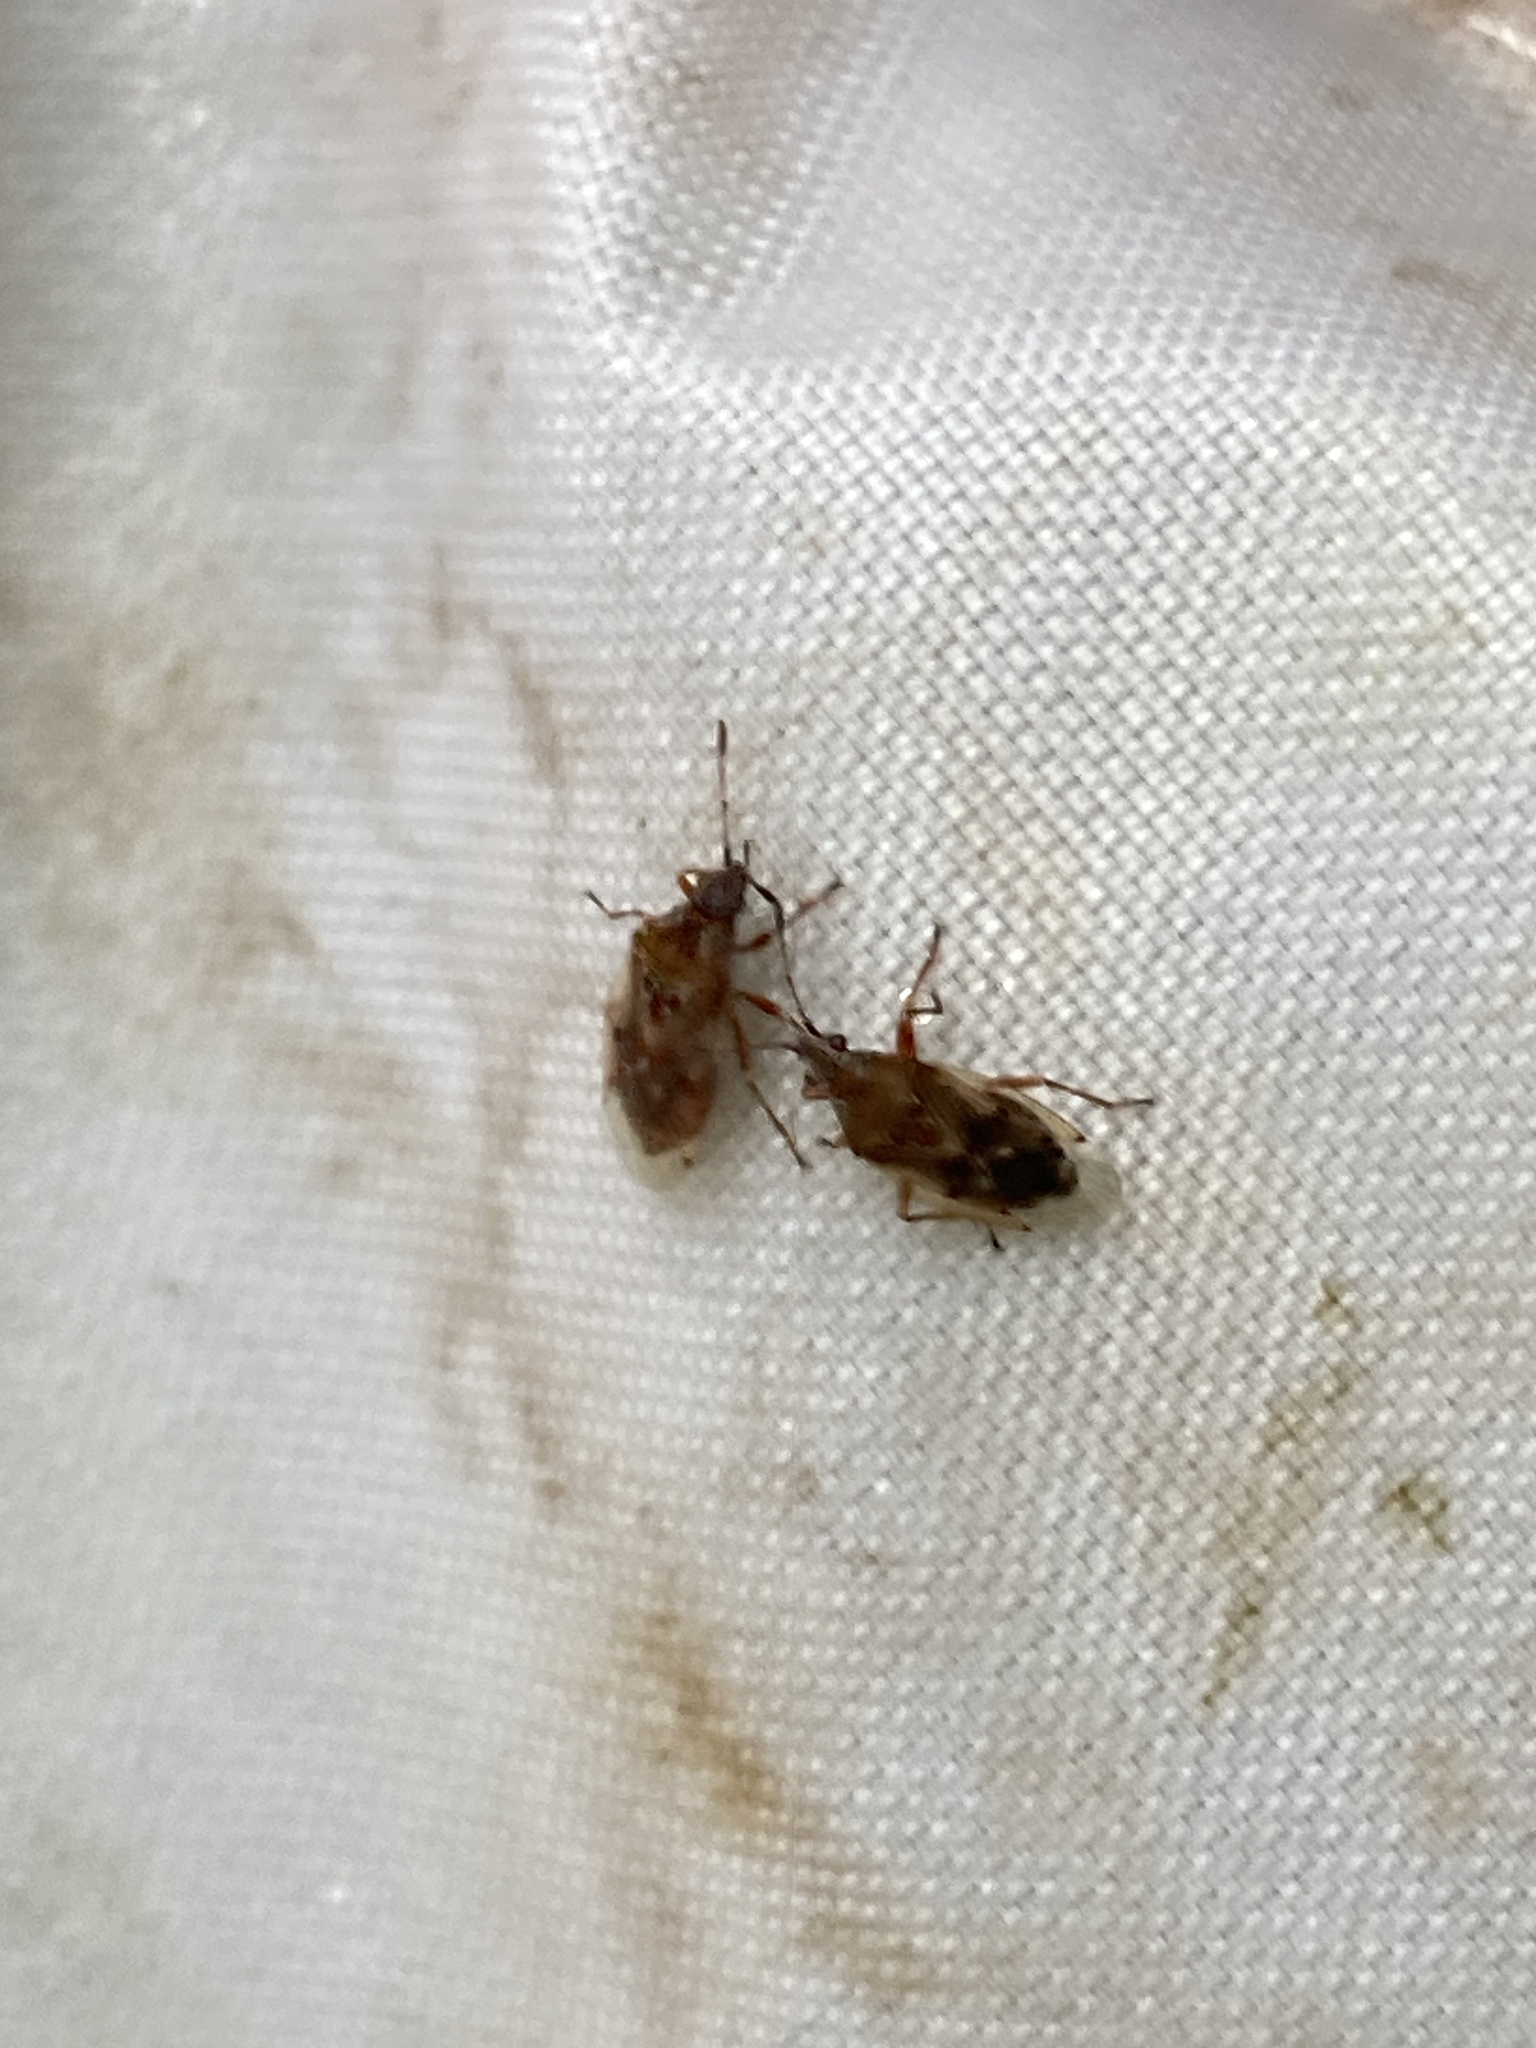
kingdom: Animalia
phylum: Arthropoda
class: Insecta
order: Hemiptera
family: Lygaeidae
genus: Kleidocerys
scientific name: Kleidocerys resedae
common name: Birch catkin bug
